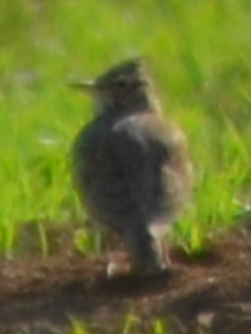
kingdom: Animalia
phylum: Chordata
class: Aves
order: Passeriformes
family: Alaudidae
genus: Galerida
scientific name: Galerida cristata
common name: Crested lark
